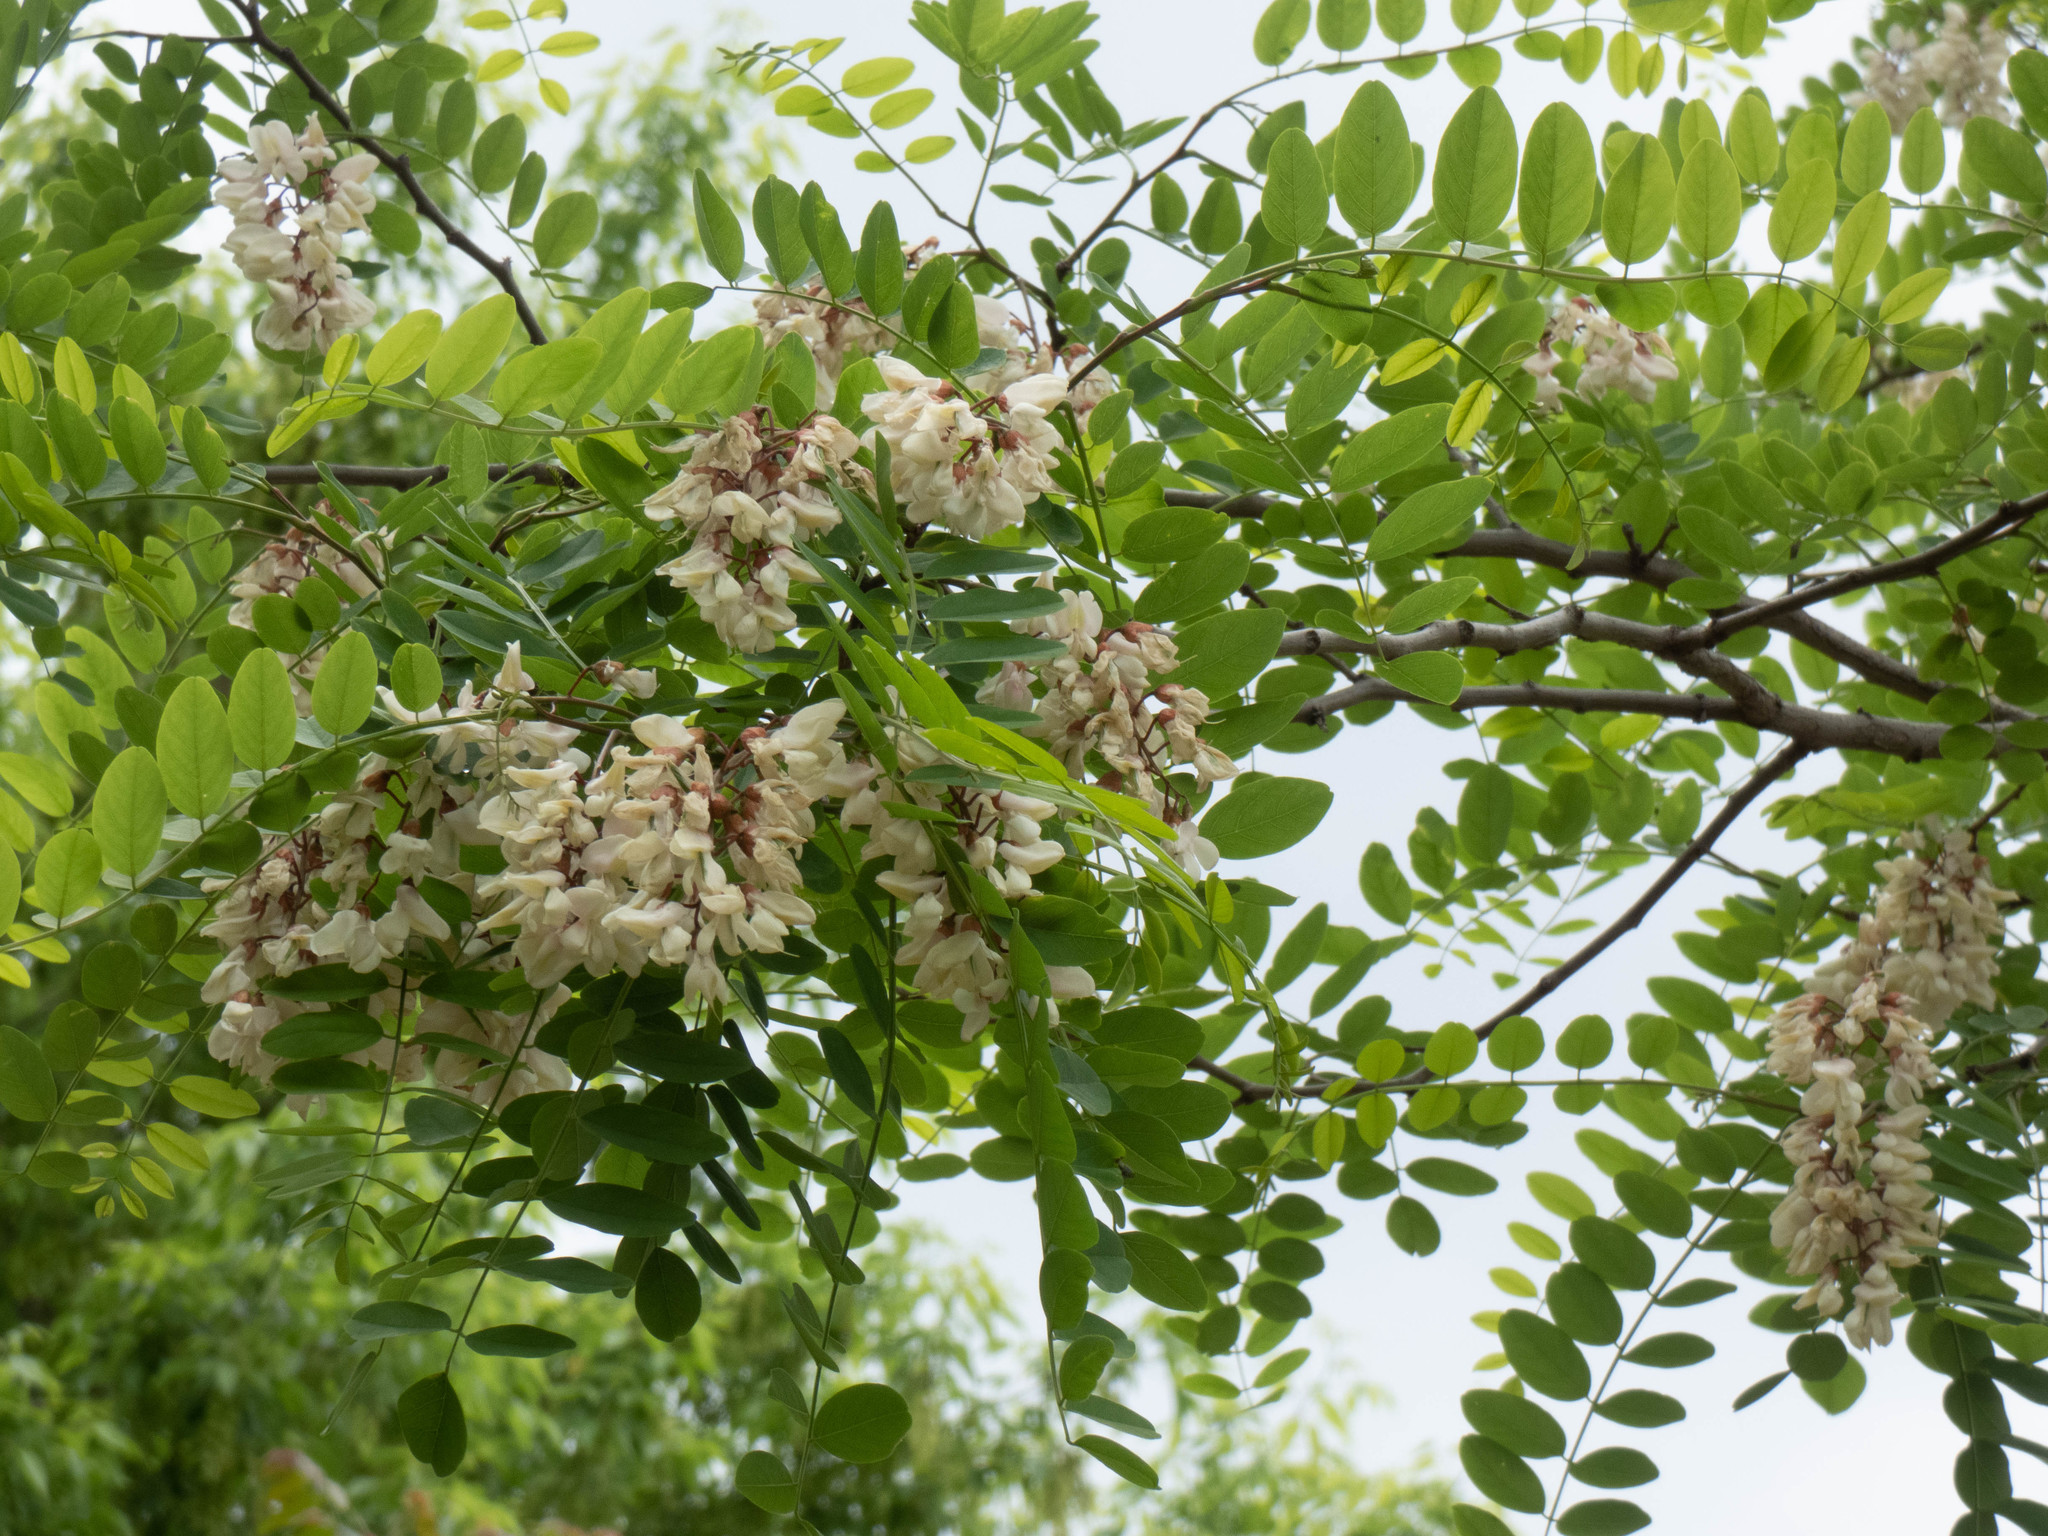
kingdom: Plantae
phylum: Tracheophyta
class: Magnoliopsida
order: Fabales
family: Fabaceae
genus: Robinia
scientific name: Robinia pseudoacacia
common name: Black locust
